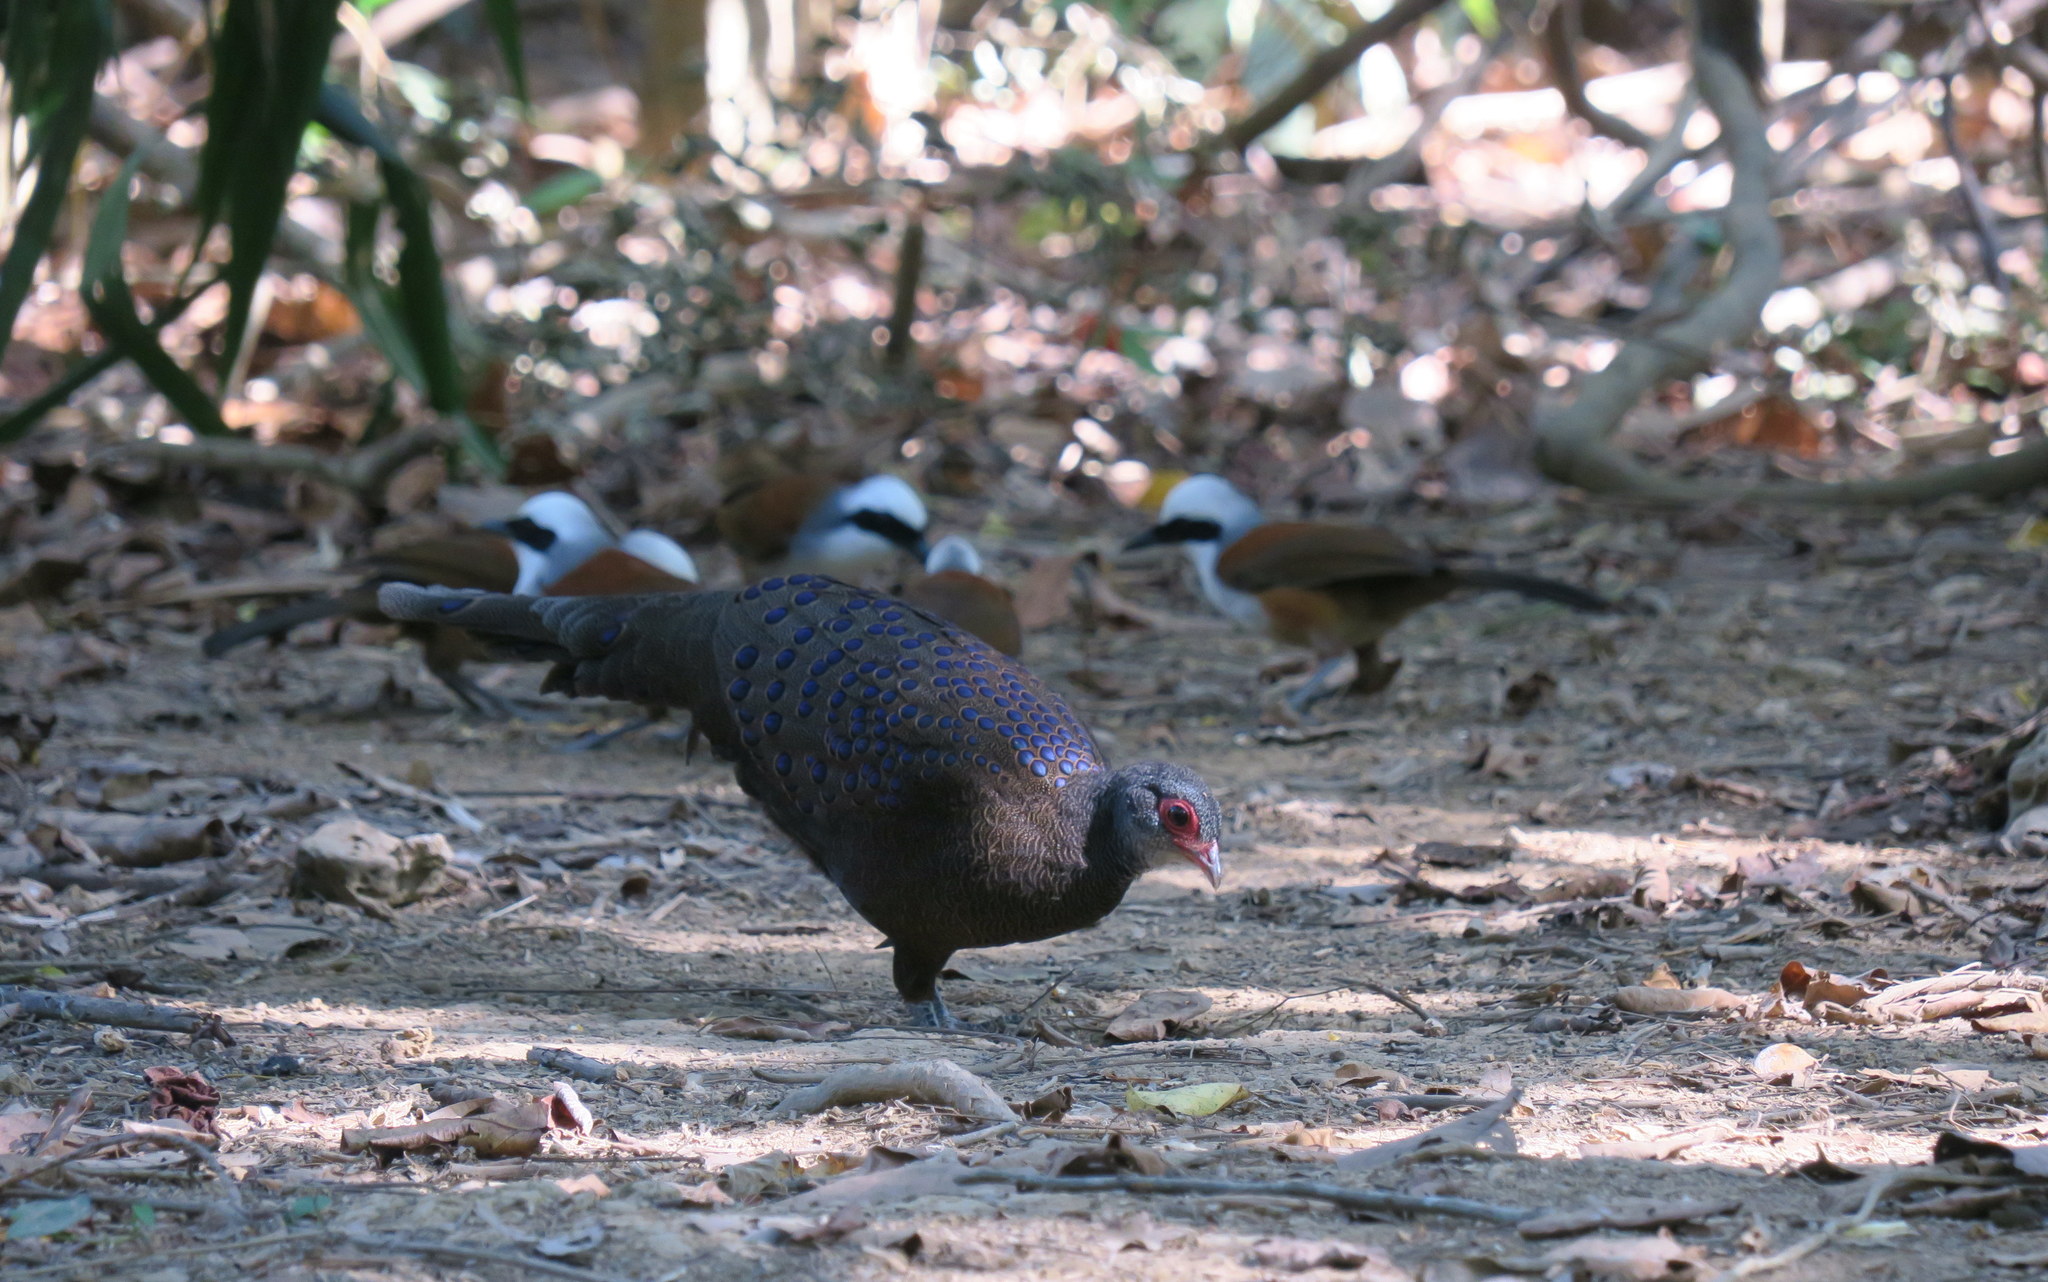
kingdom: Animalia
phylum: Chordata
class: Aves
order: Galliformes
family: Phasianidae
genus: Polyplectron
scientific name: Polyplectron germaini
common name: Germain's peacock-pheasant
